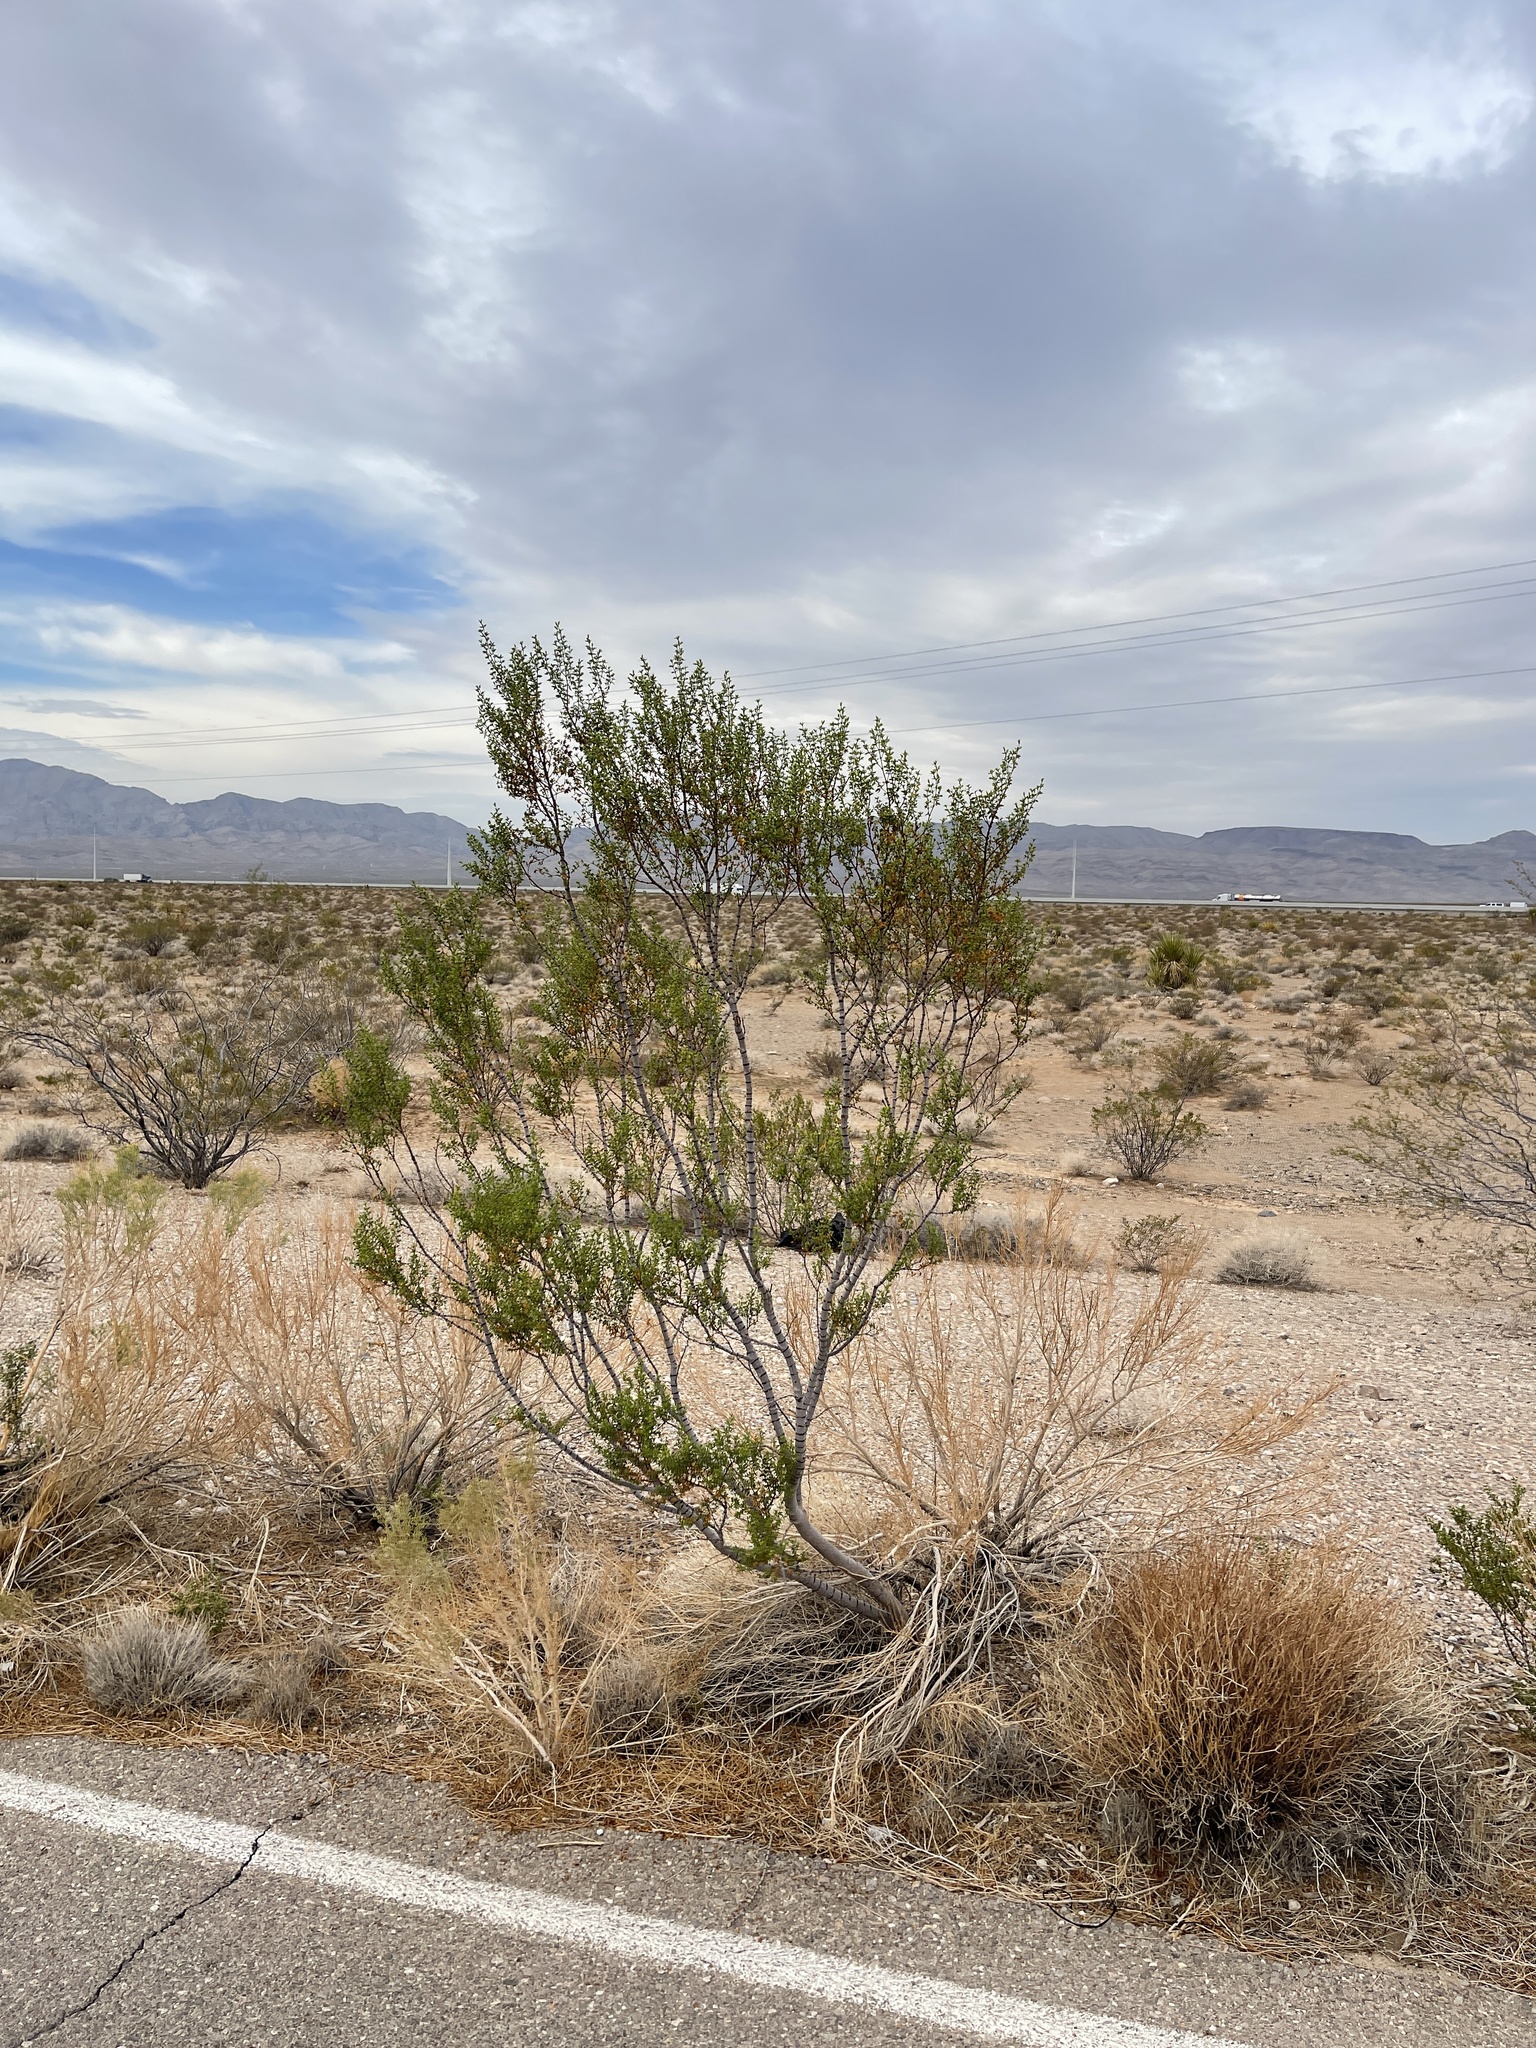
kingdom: Plantae
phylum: Tracheophyta
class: Magnoliopsida
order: Zygophyllales
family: Zygophyllaceae
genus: Larrea
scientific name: Larrea tridentata
